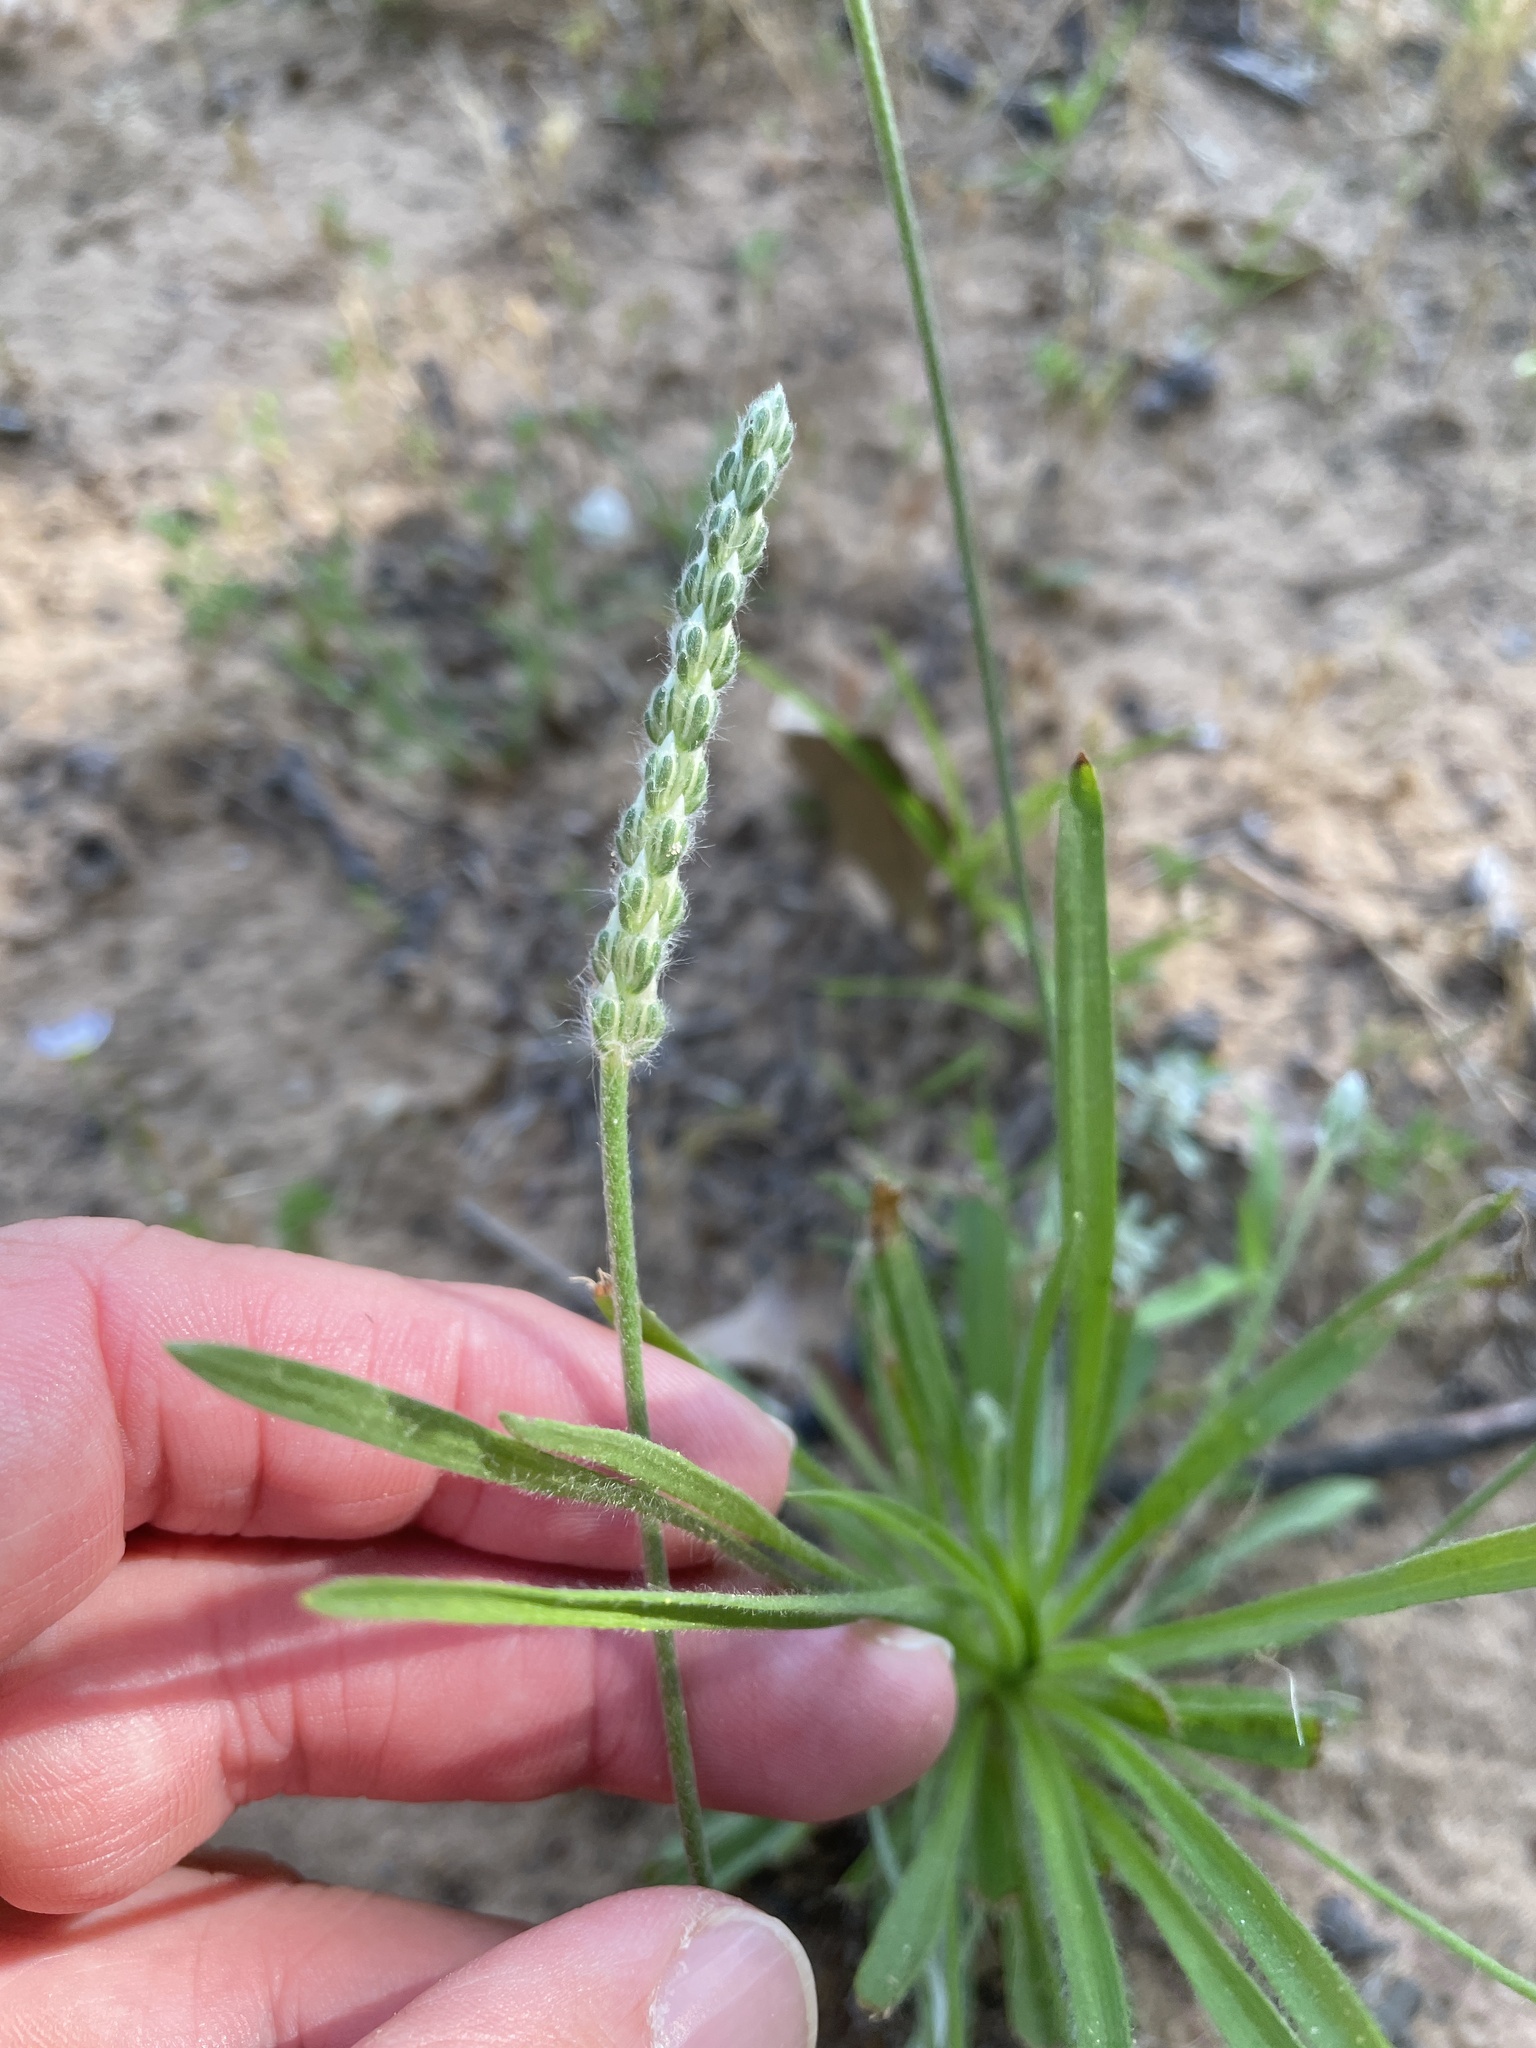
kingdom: Plantae
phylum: Tracheophyta
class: Magnoliopsida
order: Lamiales
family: Plantaginaceae
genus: Plantago
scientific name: Plantago wrightiana
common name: Wright's plantain
